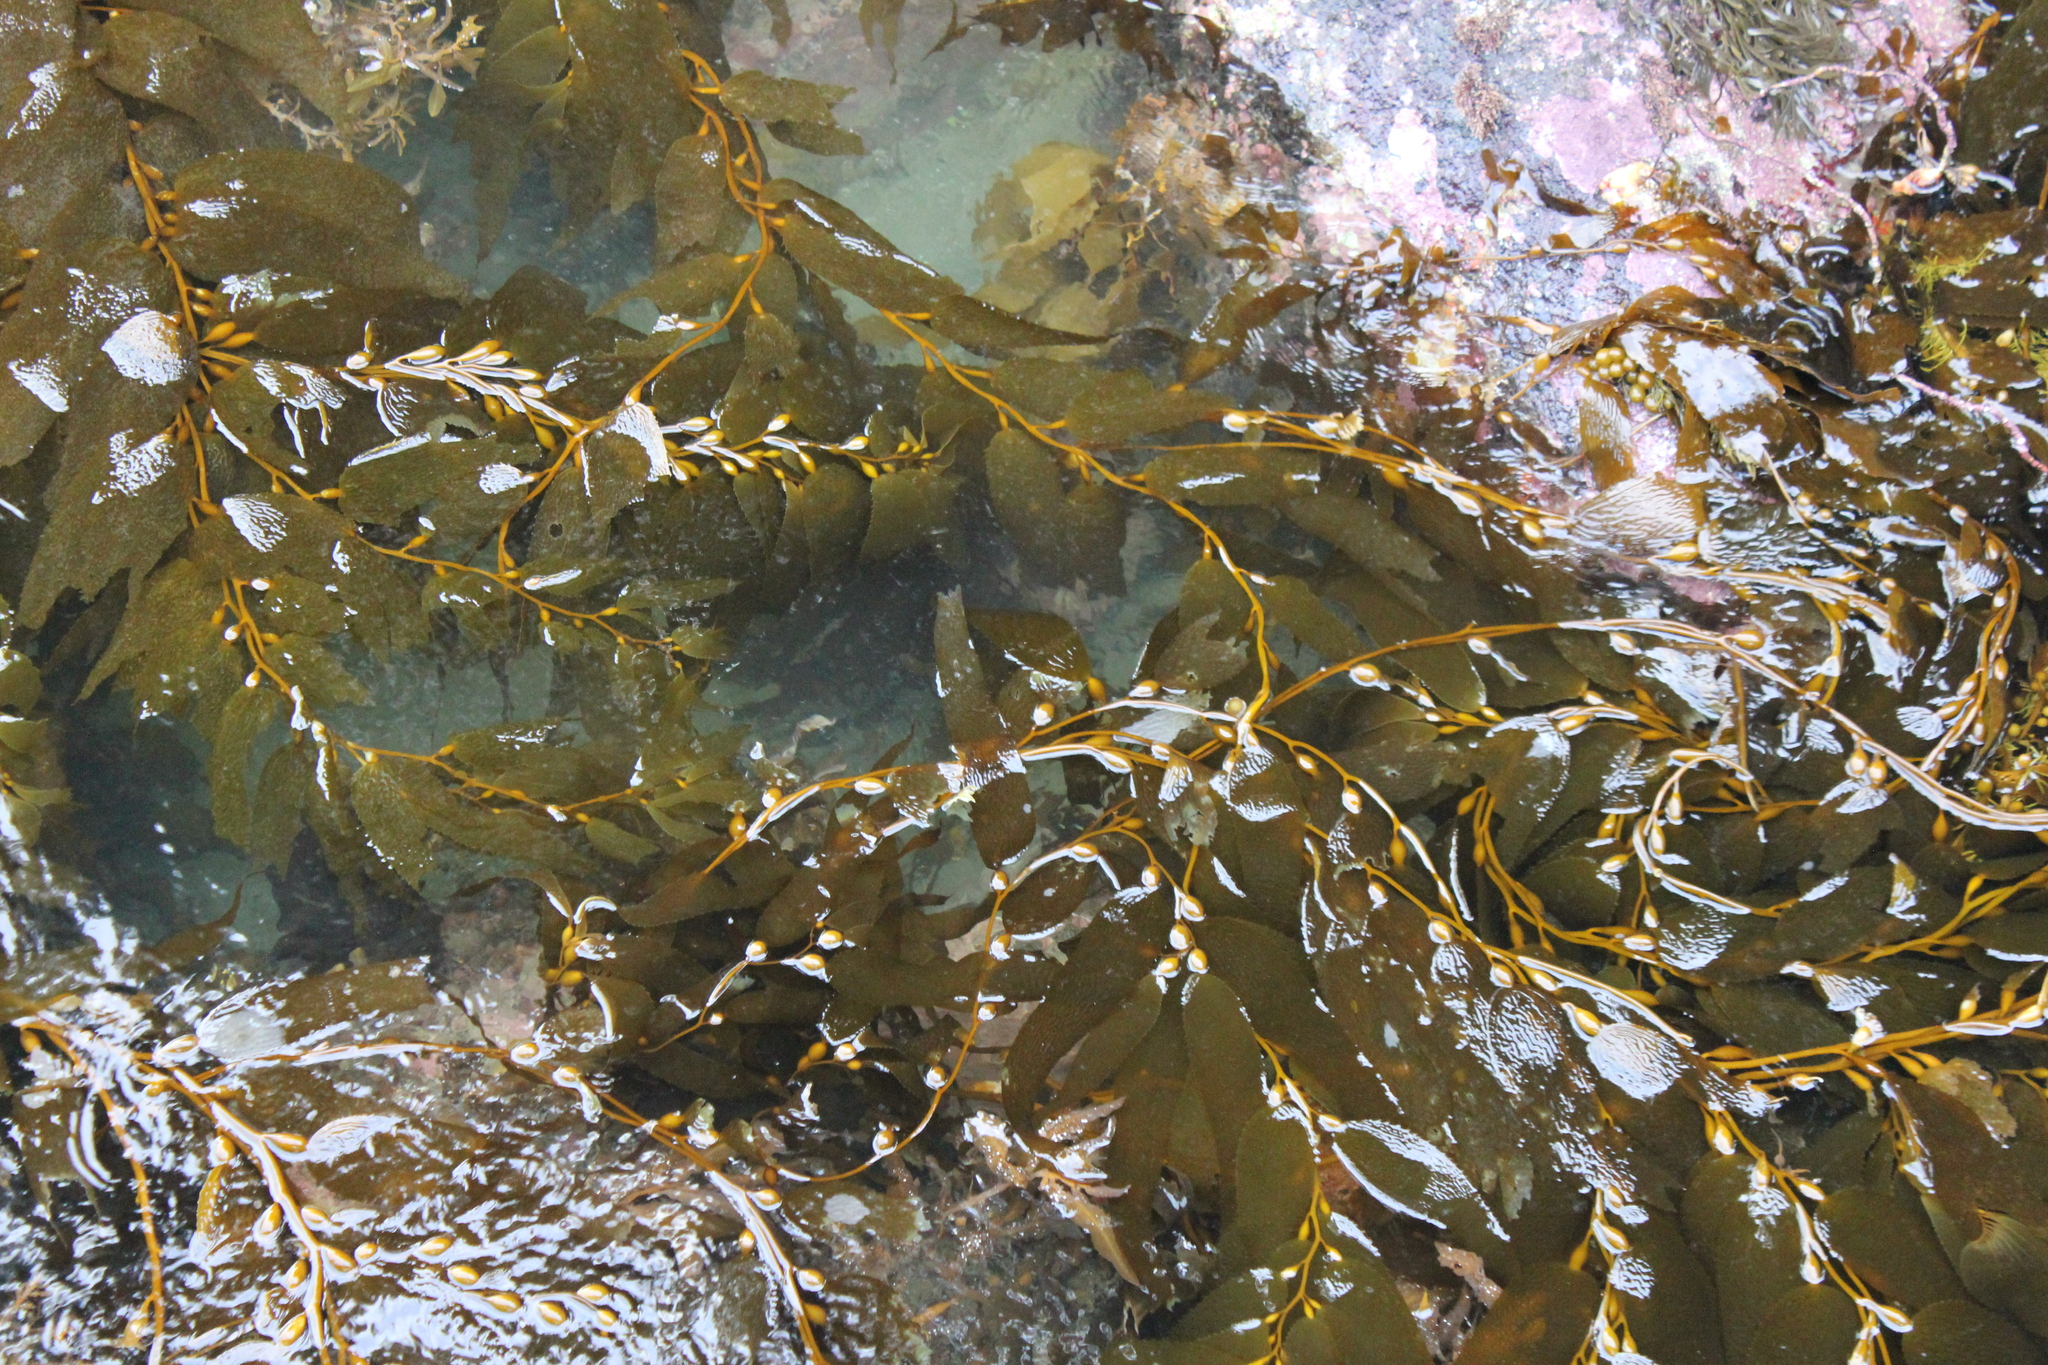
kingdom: Chromista
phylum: Ochrophyta
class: Phaeophyceae
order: Laminariales
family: Laminariaceae
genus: Macrocystis
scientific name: Macrocystis pyrifera
